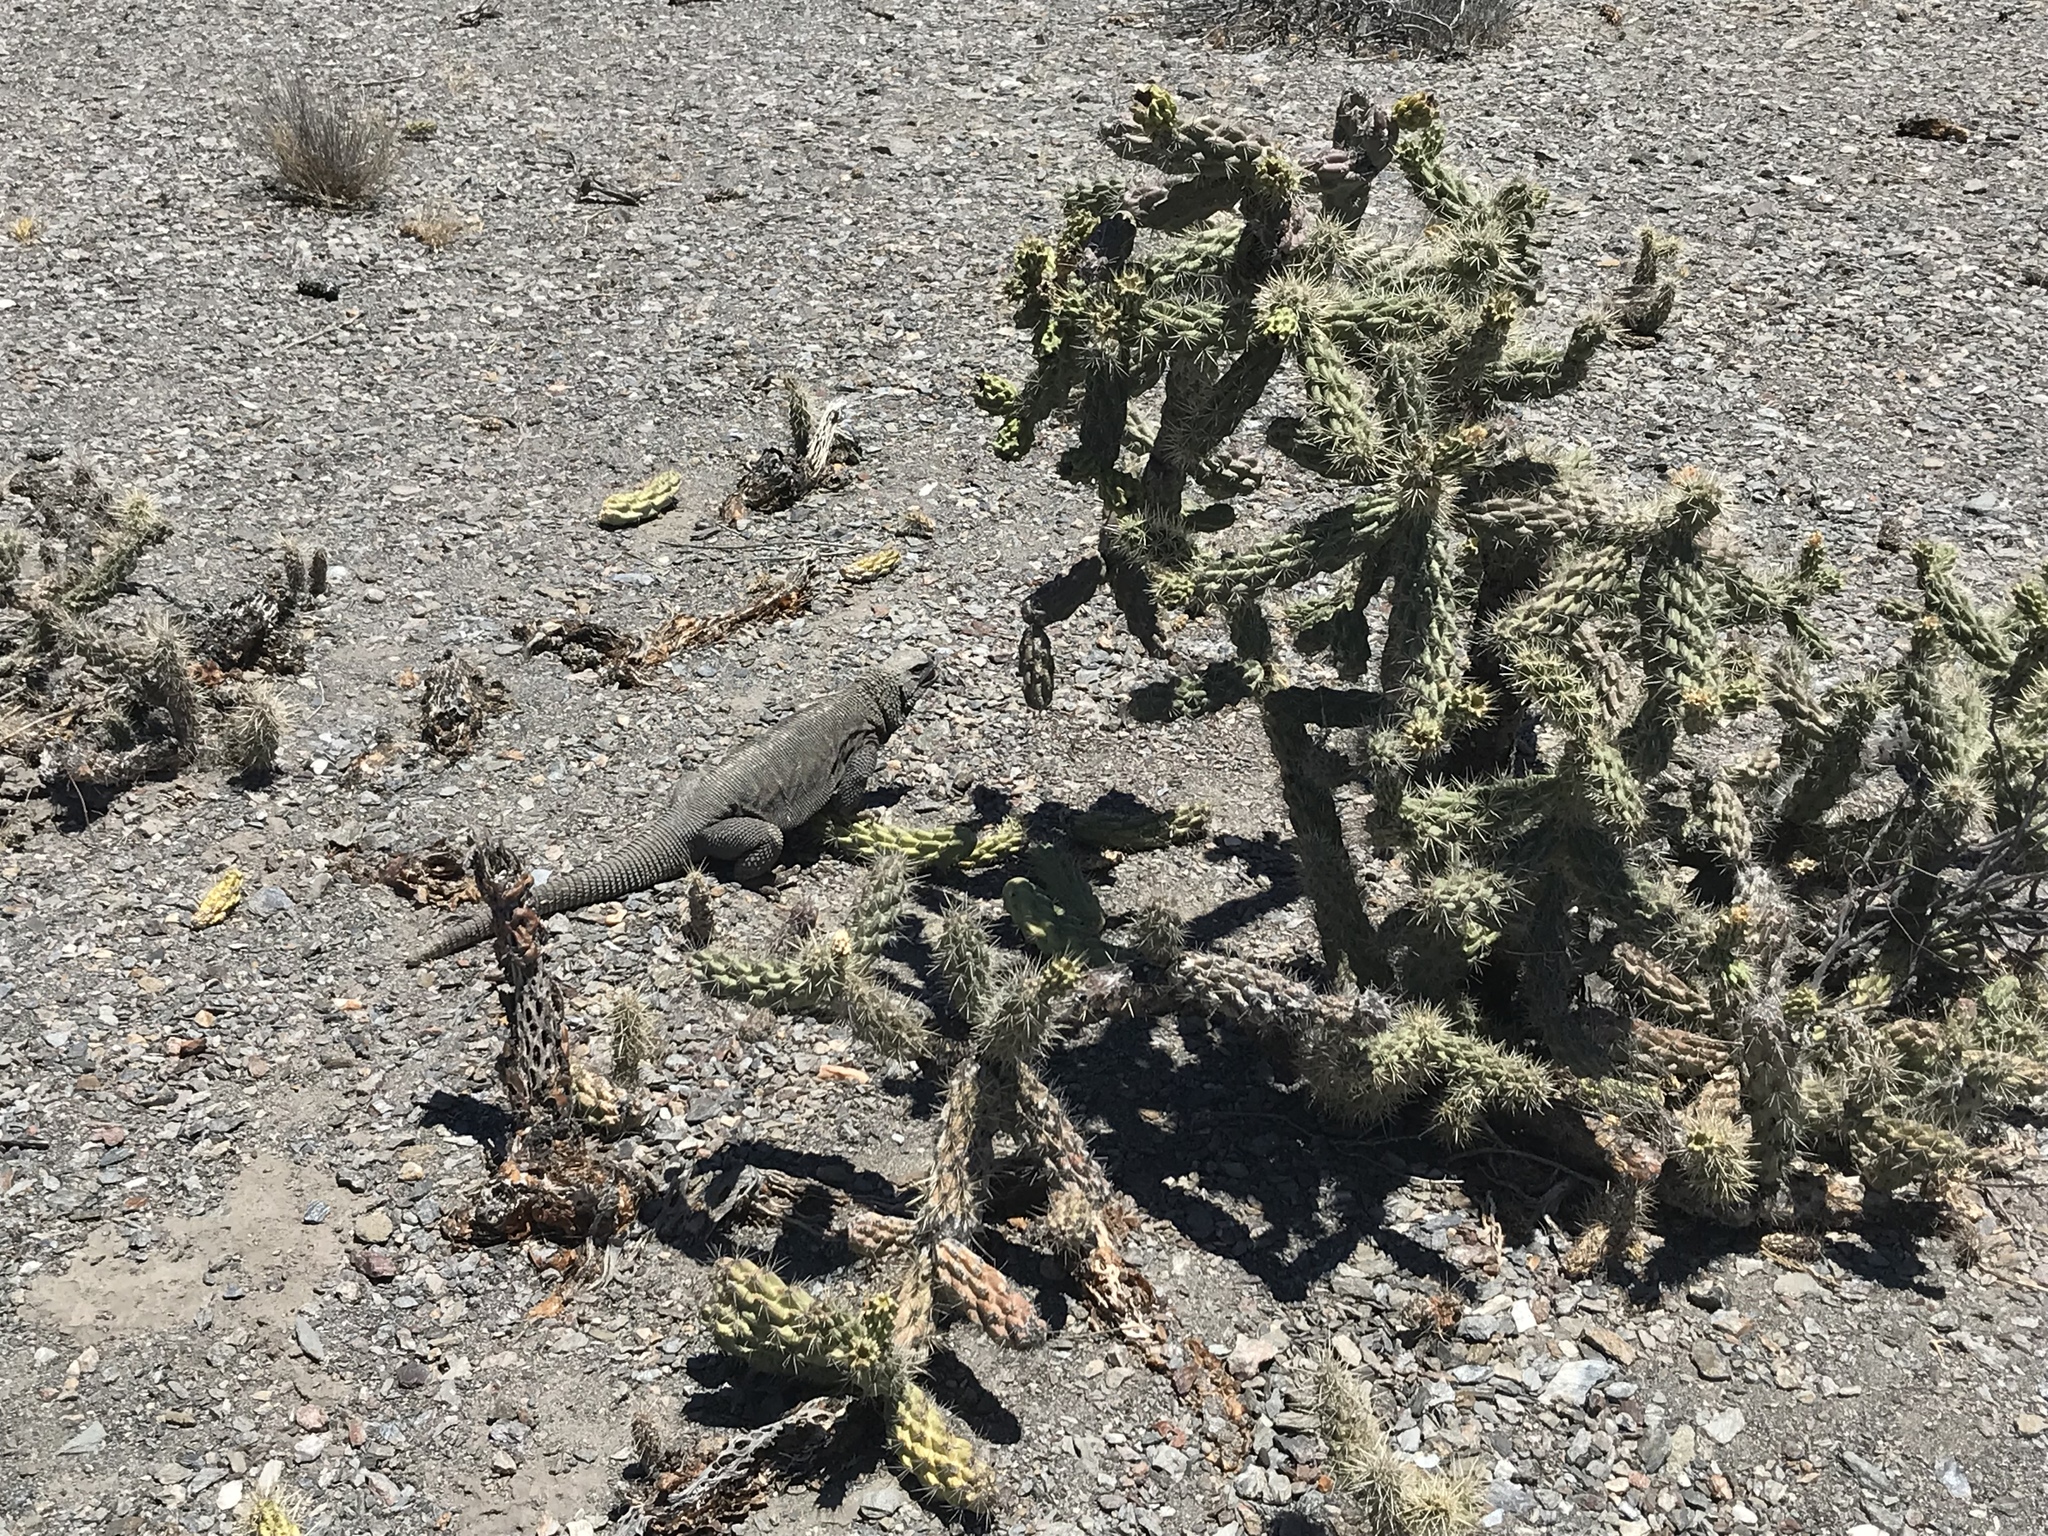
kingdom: Animalia
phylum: Chordata
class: Squamata
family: Iguanidae
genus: Sauromalus
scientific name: Sauromalus hispidus
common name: Spiny chuckwalla
